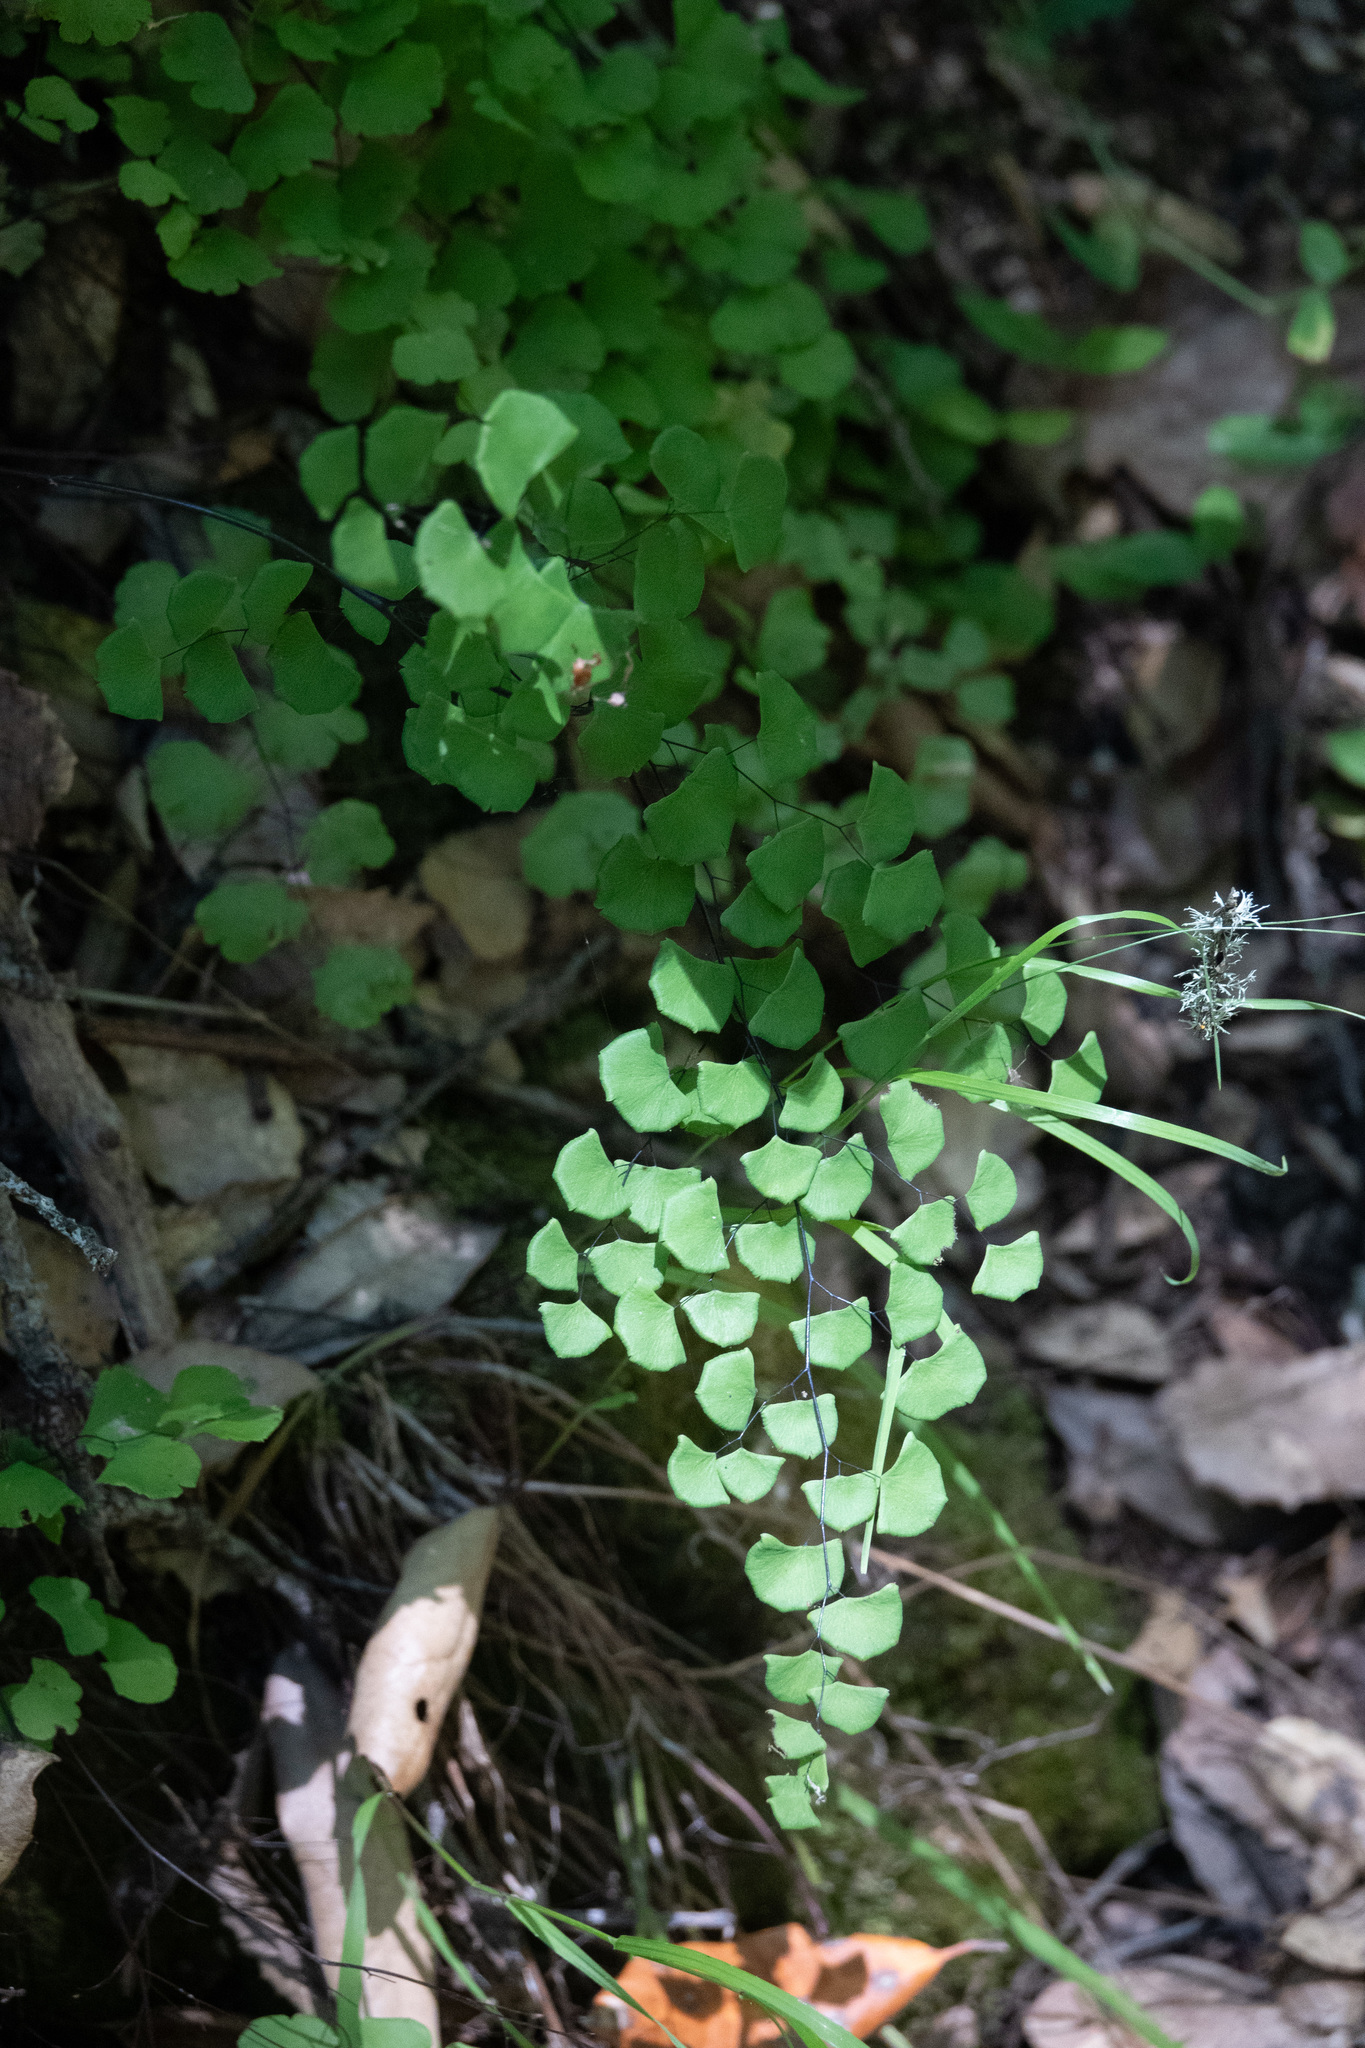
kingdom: Plantae
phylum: Tracheophyta
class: Polypodiopsida
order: Polypodiales
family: Pteridaceae
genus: Adiantum
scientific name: Adiantum jordanii
